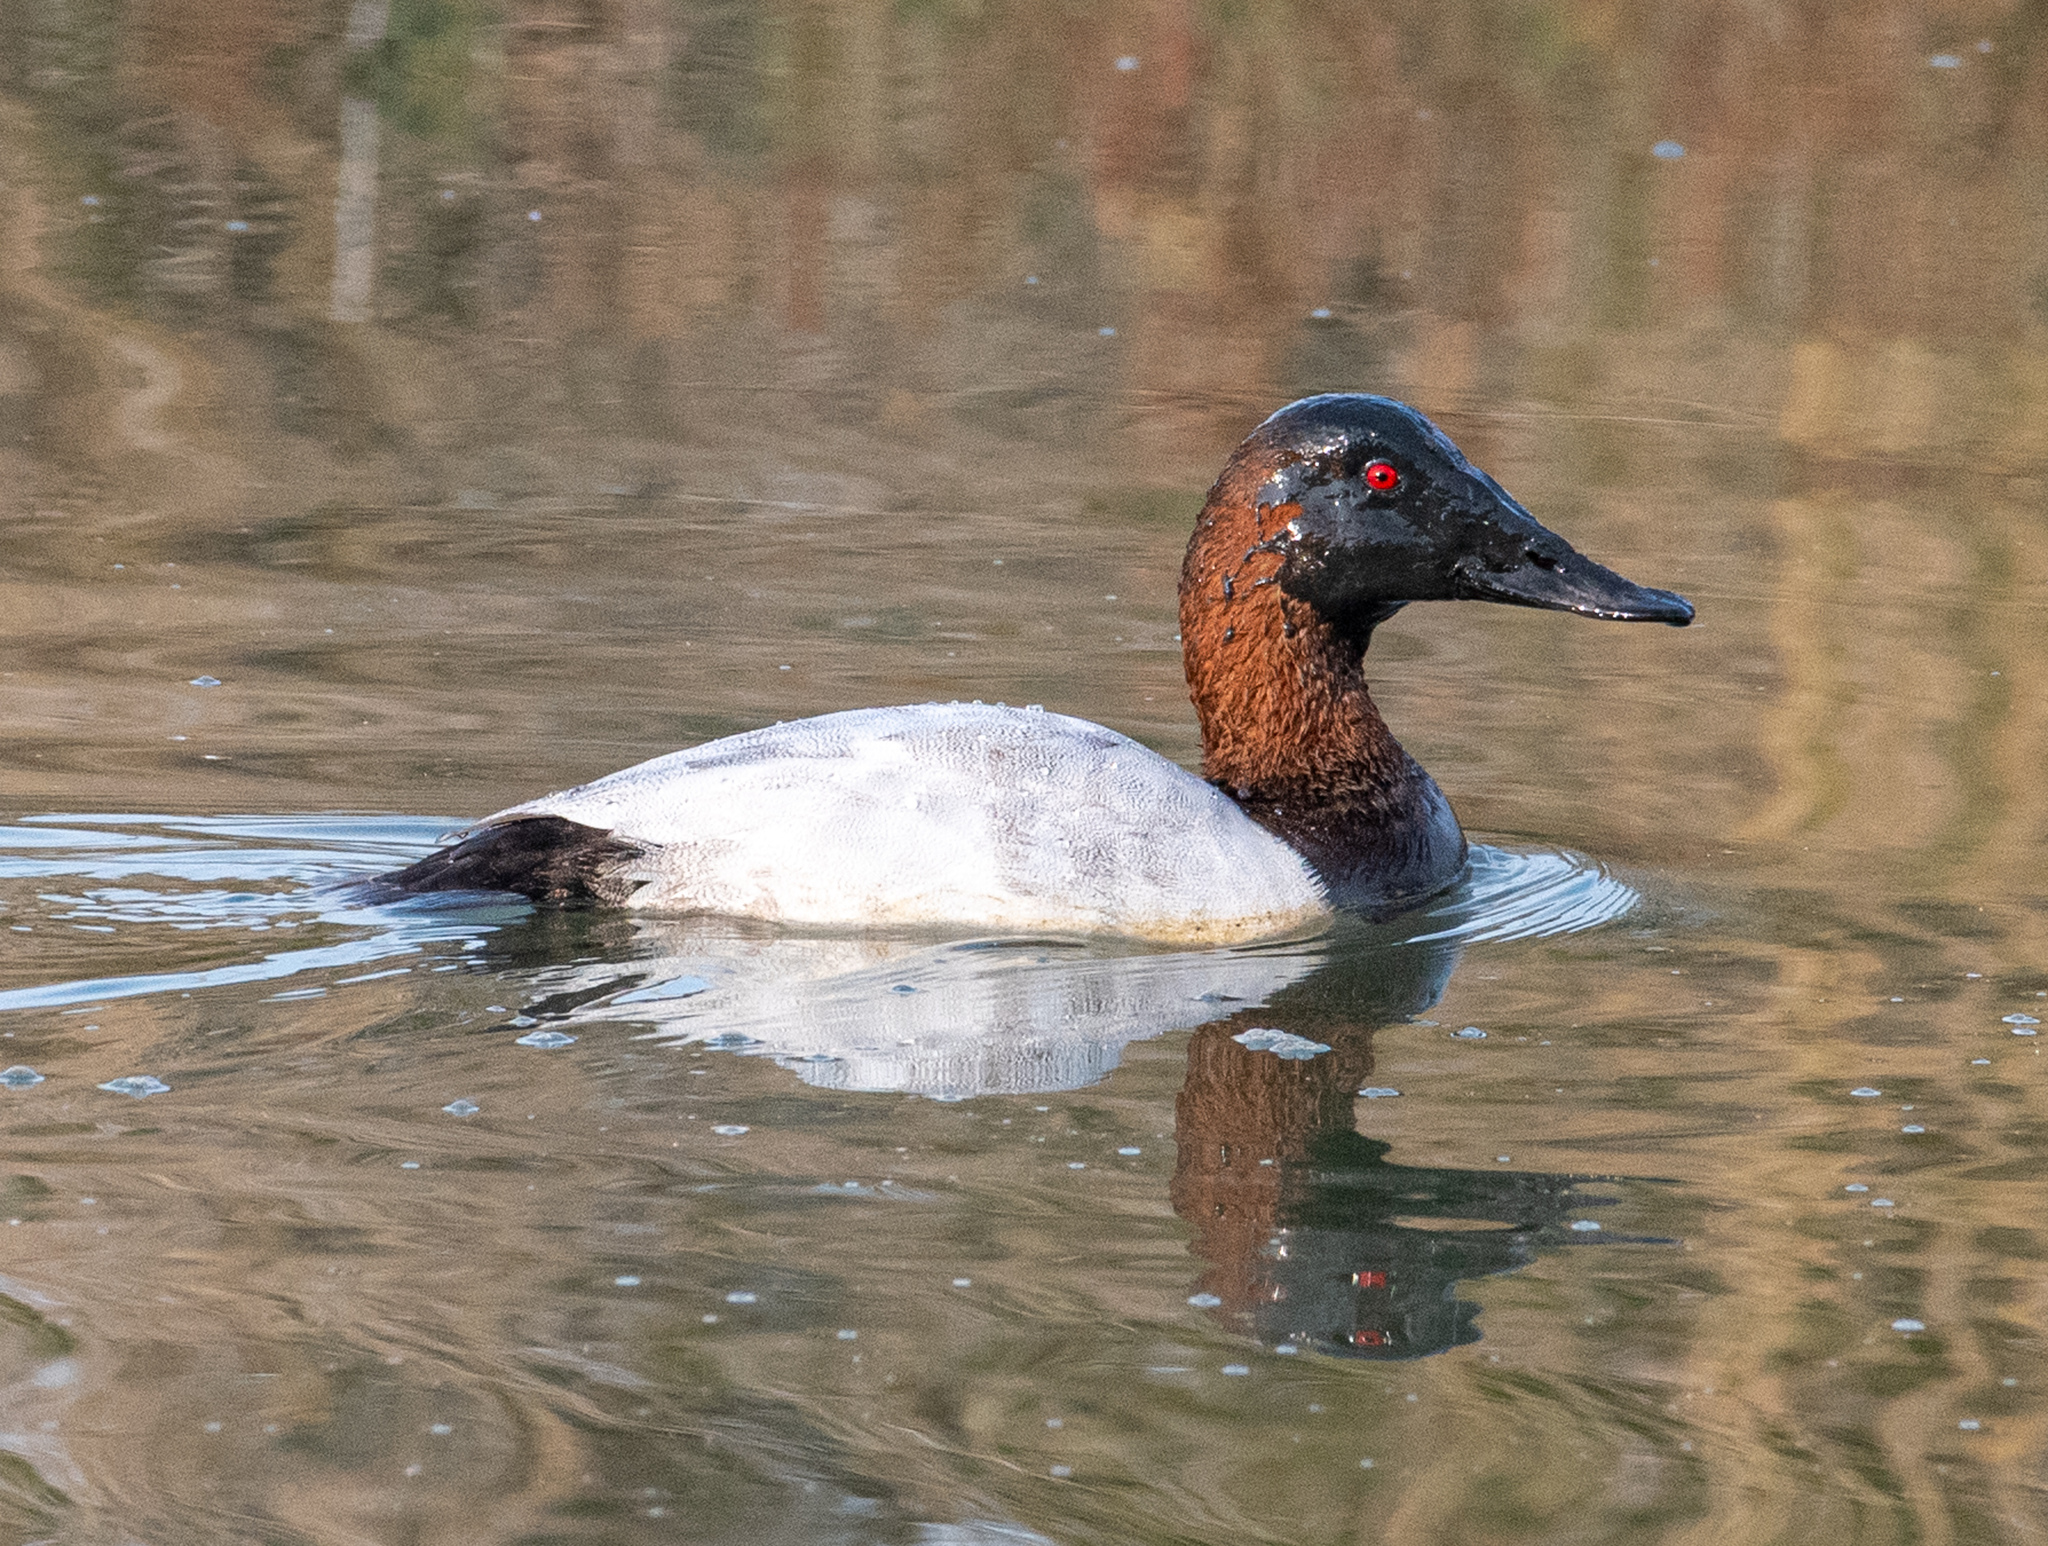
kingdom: Animalia
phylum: Chordata
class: Aves
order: Anseriformes
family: Anatidae
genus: Aythya
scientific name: Aythya valisineria
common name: Canvasback
